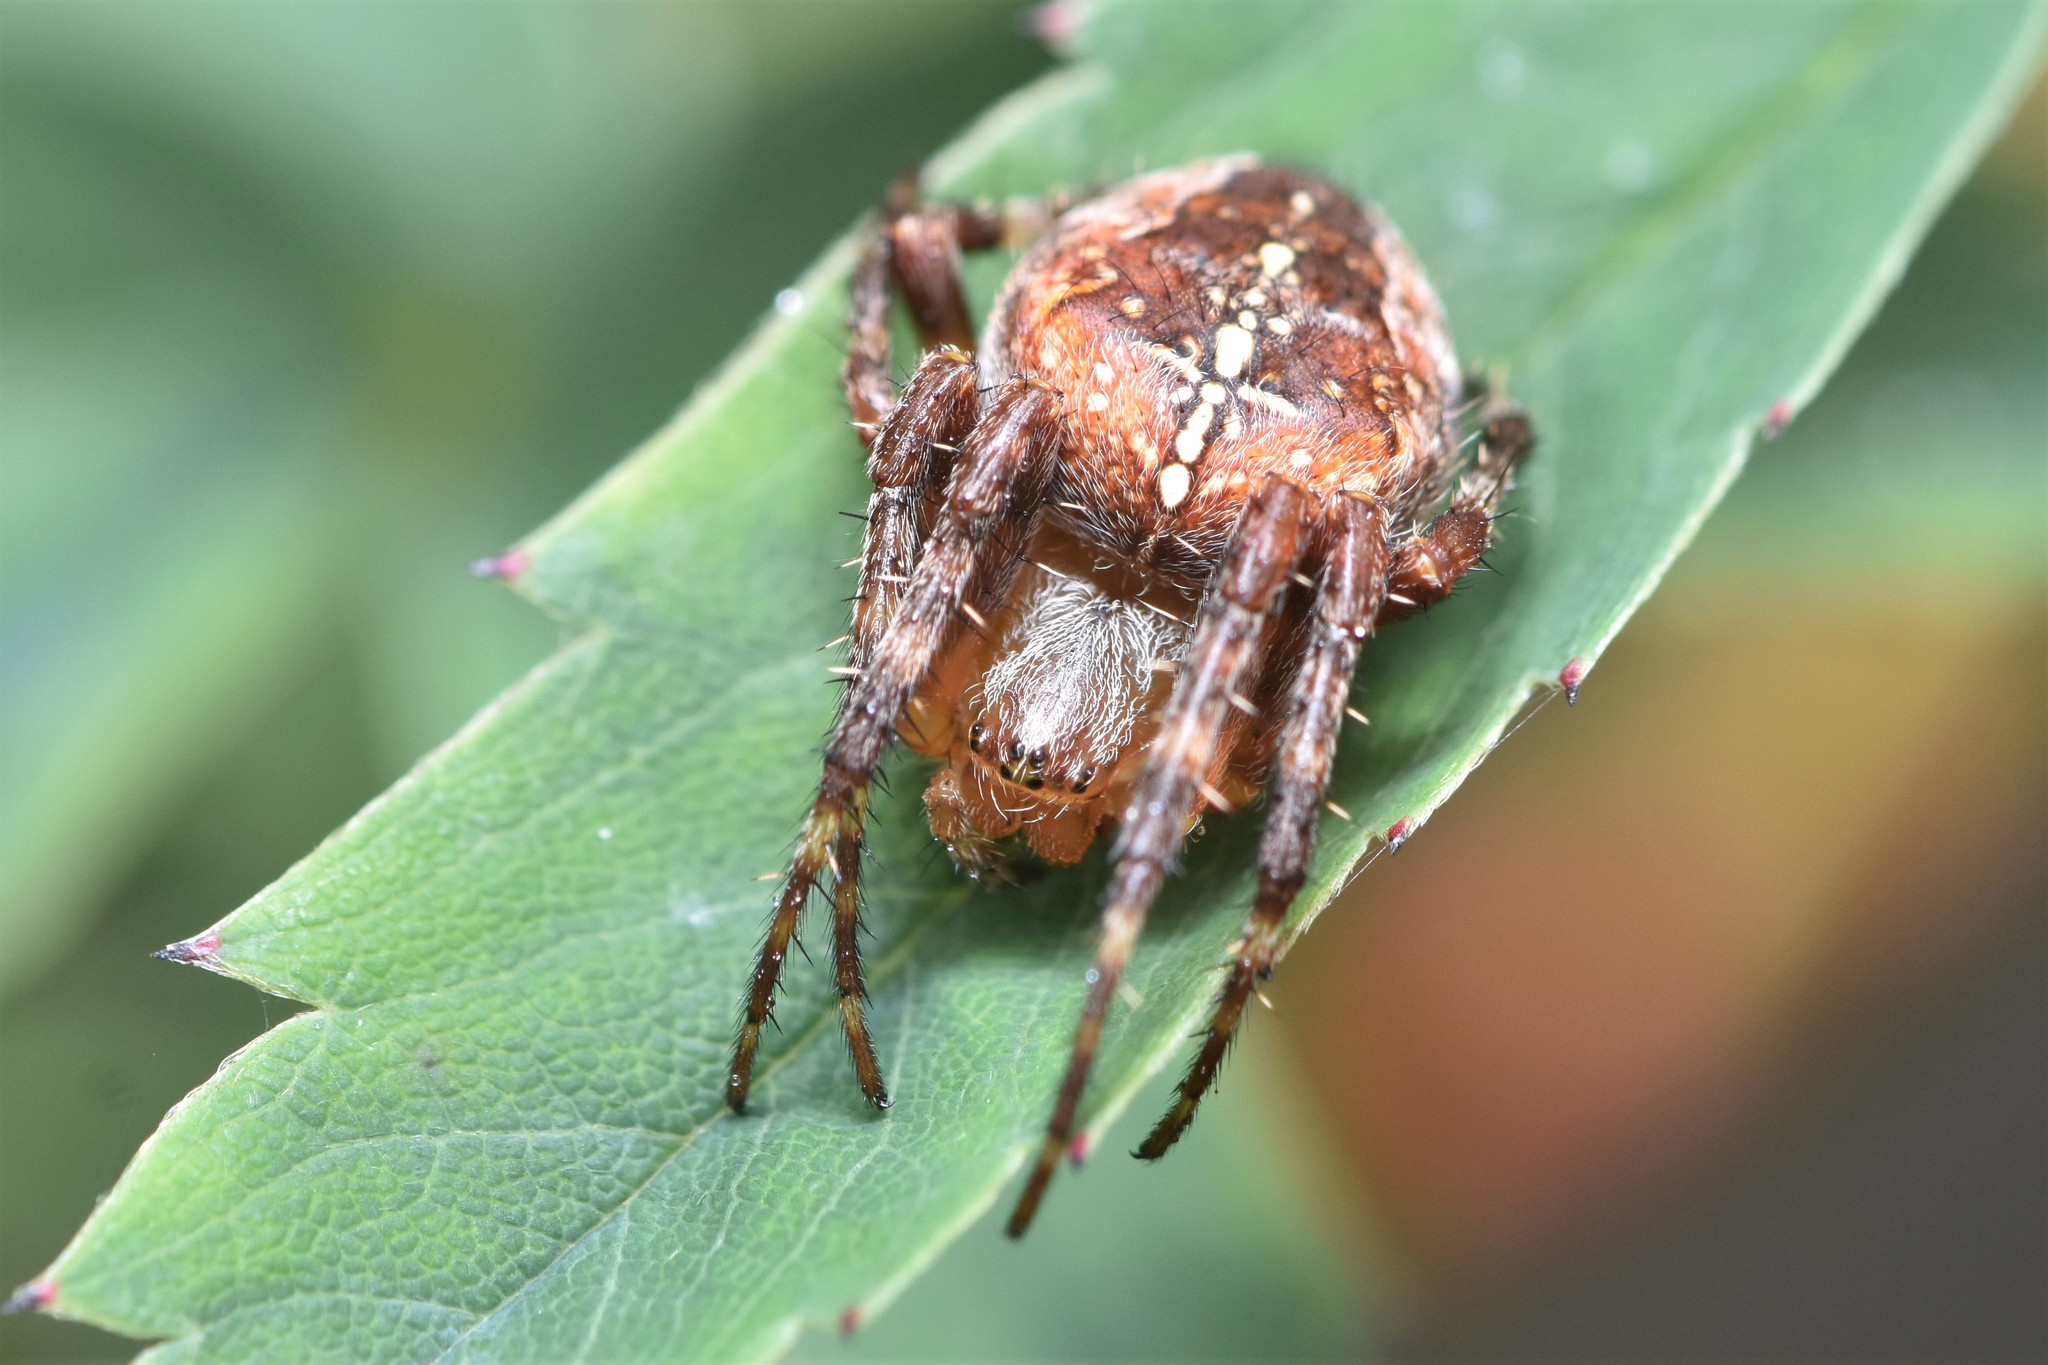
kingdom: Animalia
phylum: Arthropoda
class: Arachnida
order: Araneae
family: Araneidae
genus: Araneus
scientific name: Araneus diadematus
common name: Cross orbweaver
